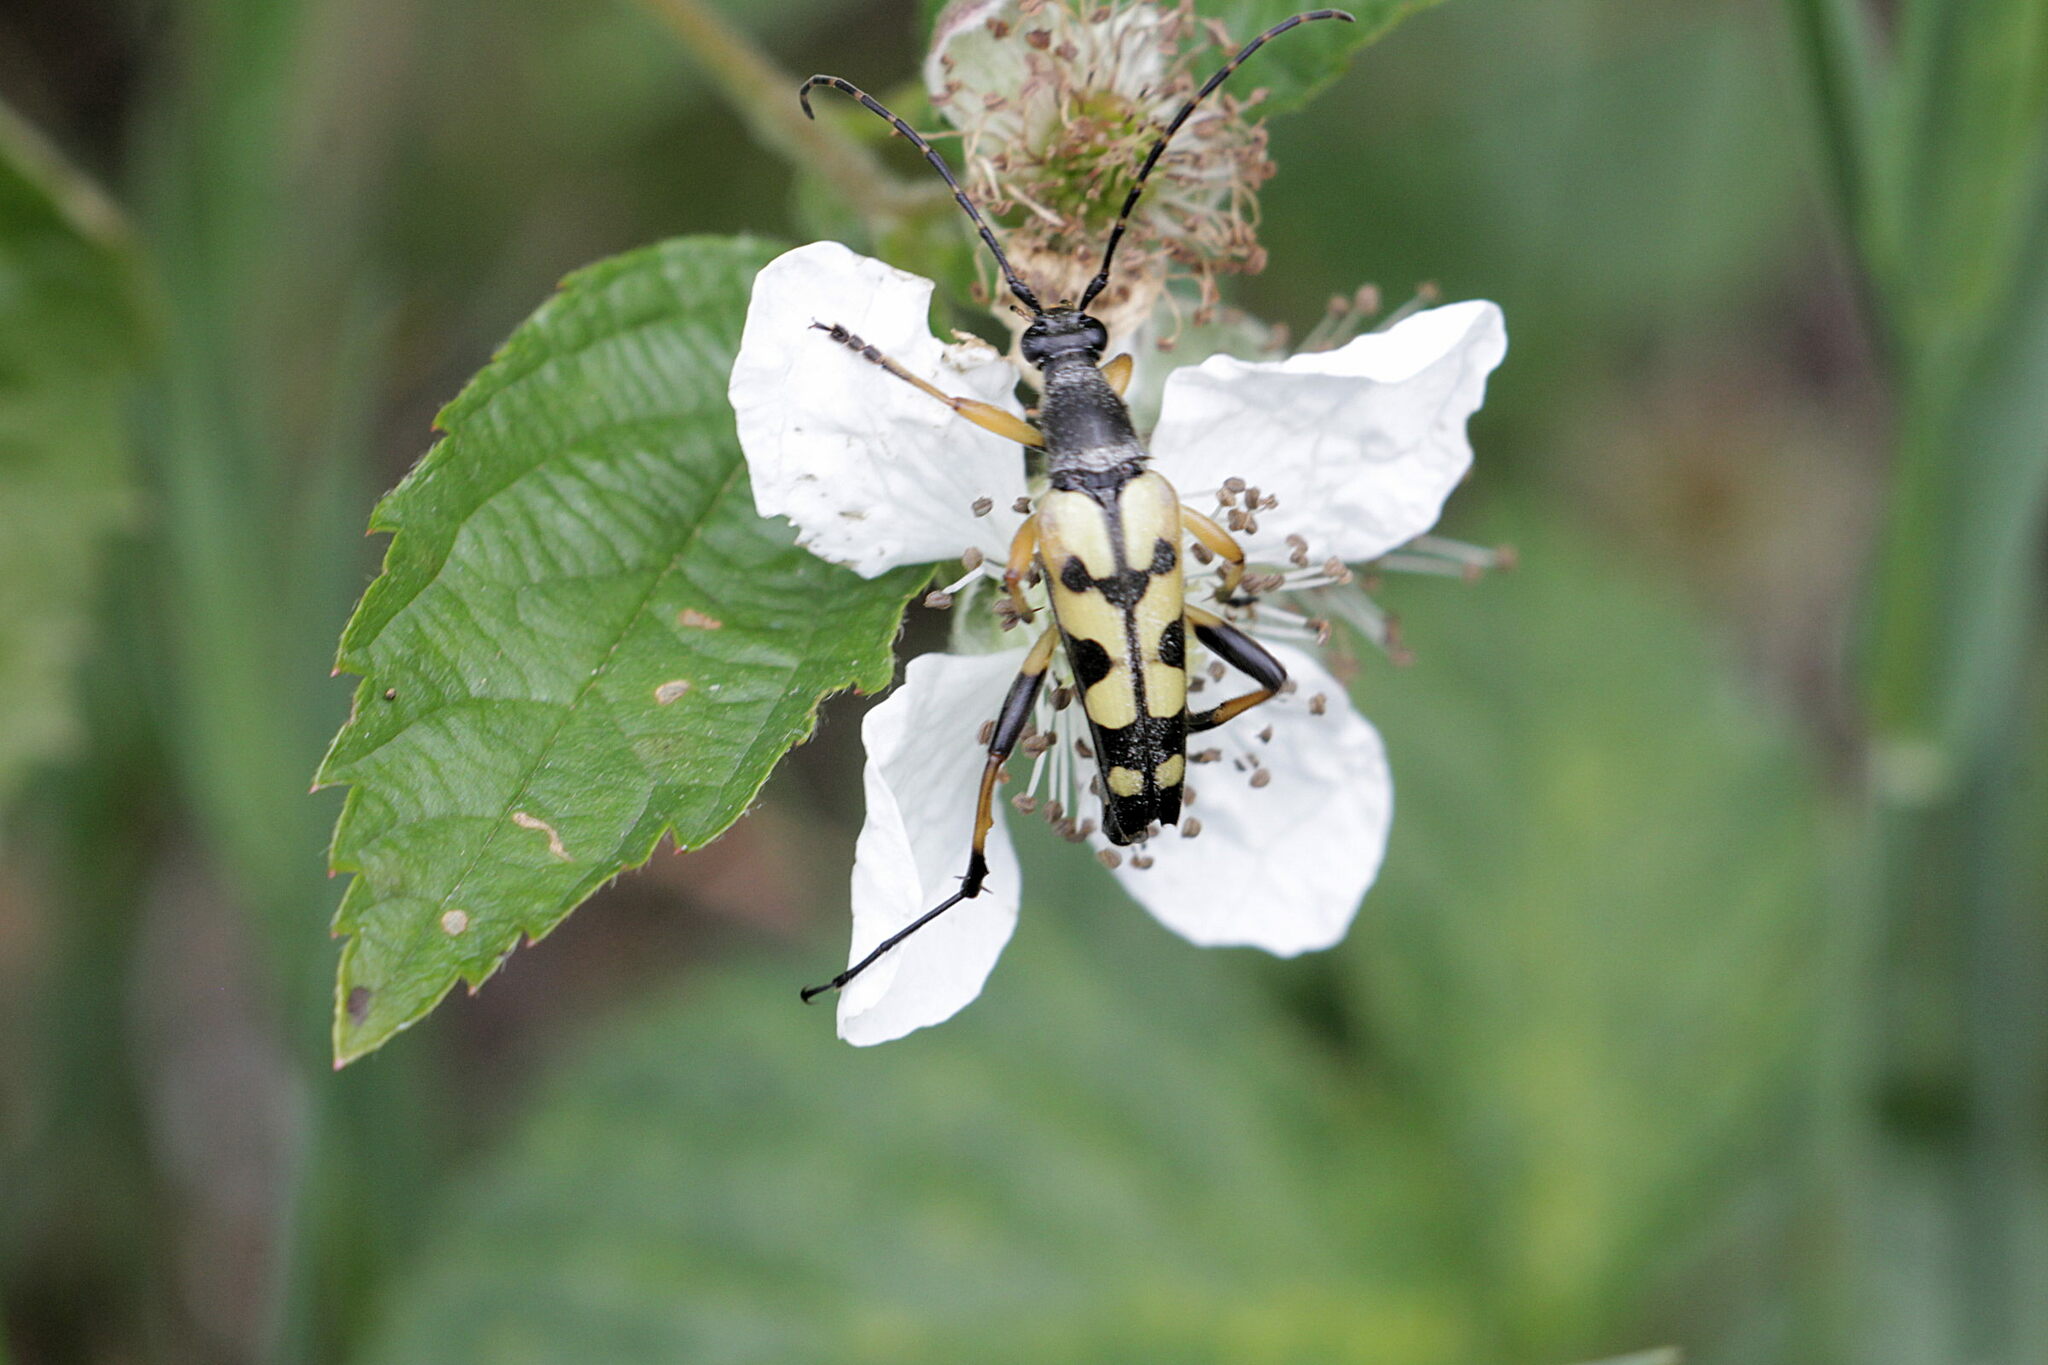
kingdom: Animalia
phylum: Arthropoda
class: Insecta
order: Coleoptera
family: Cerambycidae
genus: Rutpela
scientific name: Rutpela maculata
